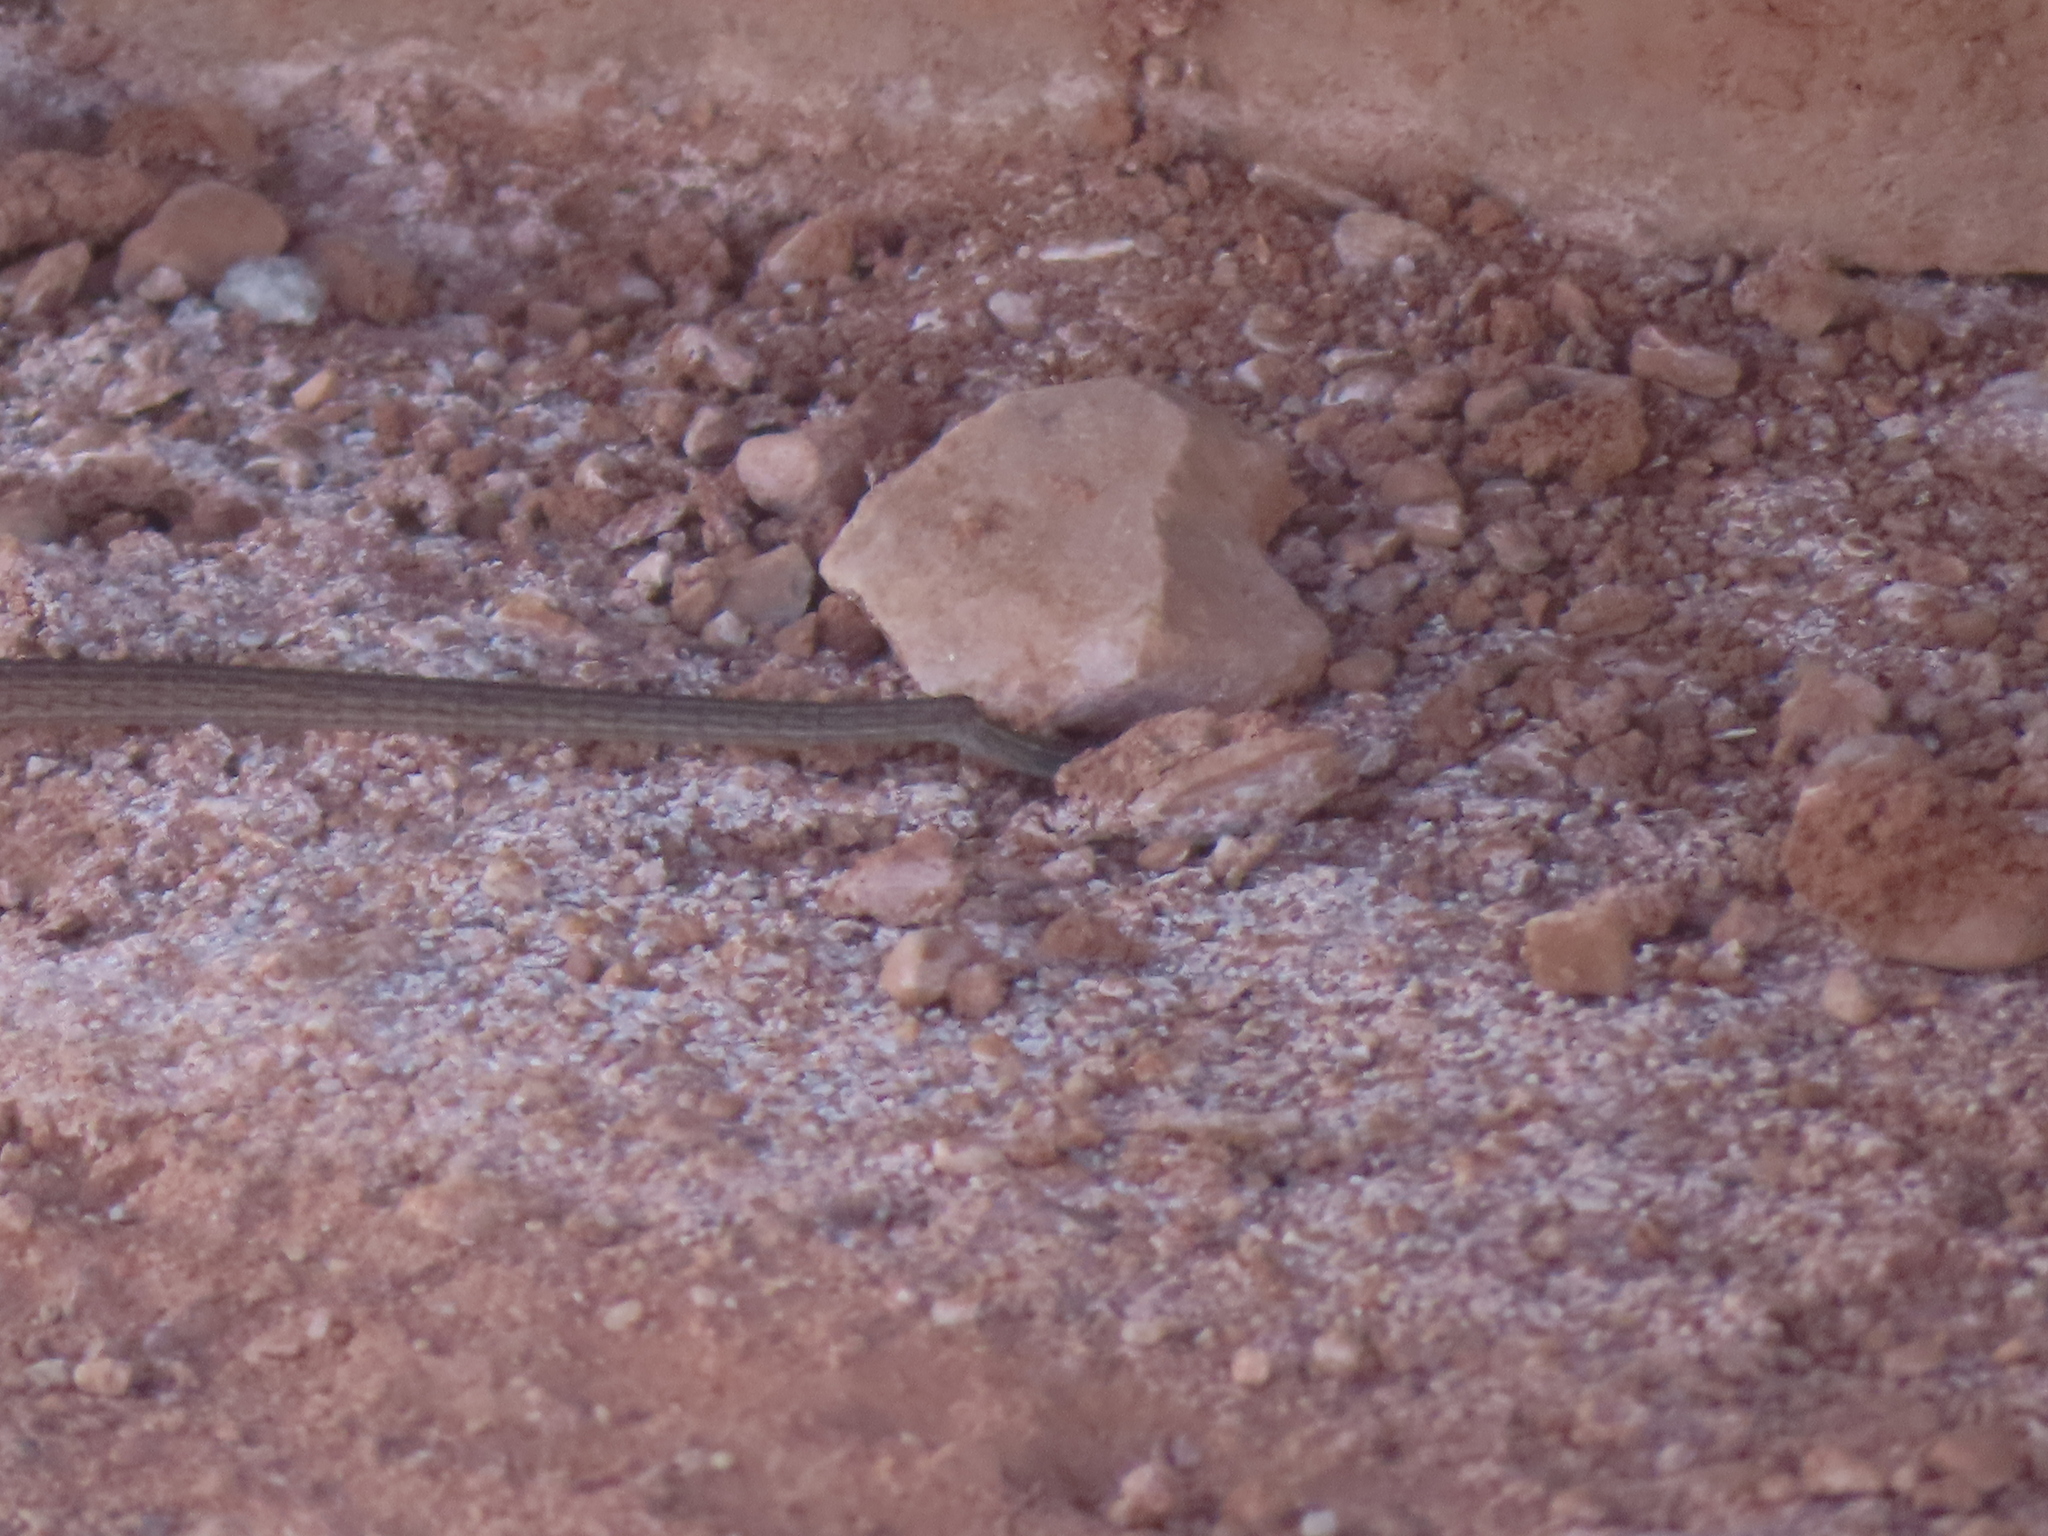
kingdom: Animalia
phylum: Chordata
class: Squamata
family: Teiidae
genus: Aspidoscelis
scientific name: Aspidoscelis tigris
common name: Tiger whiptail
